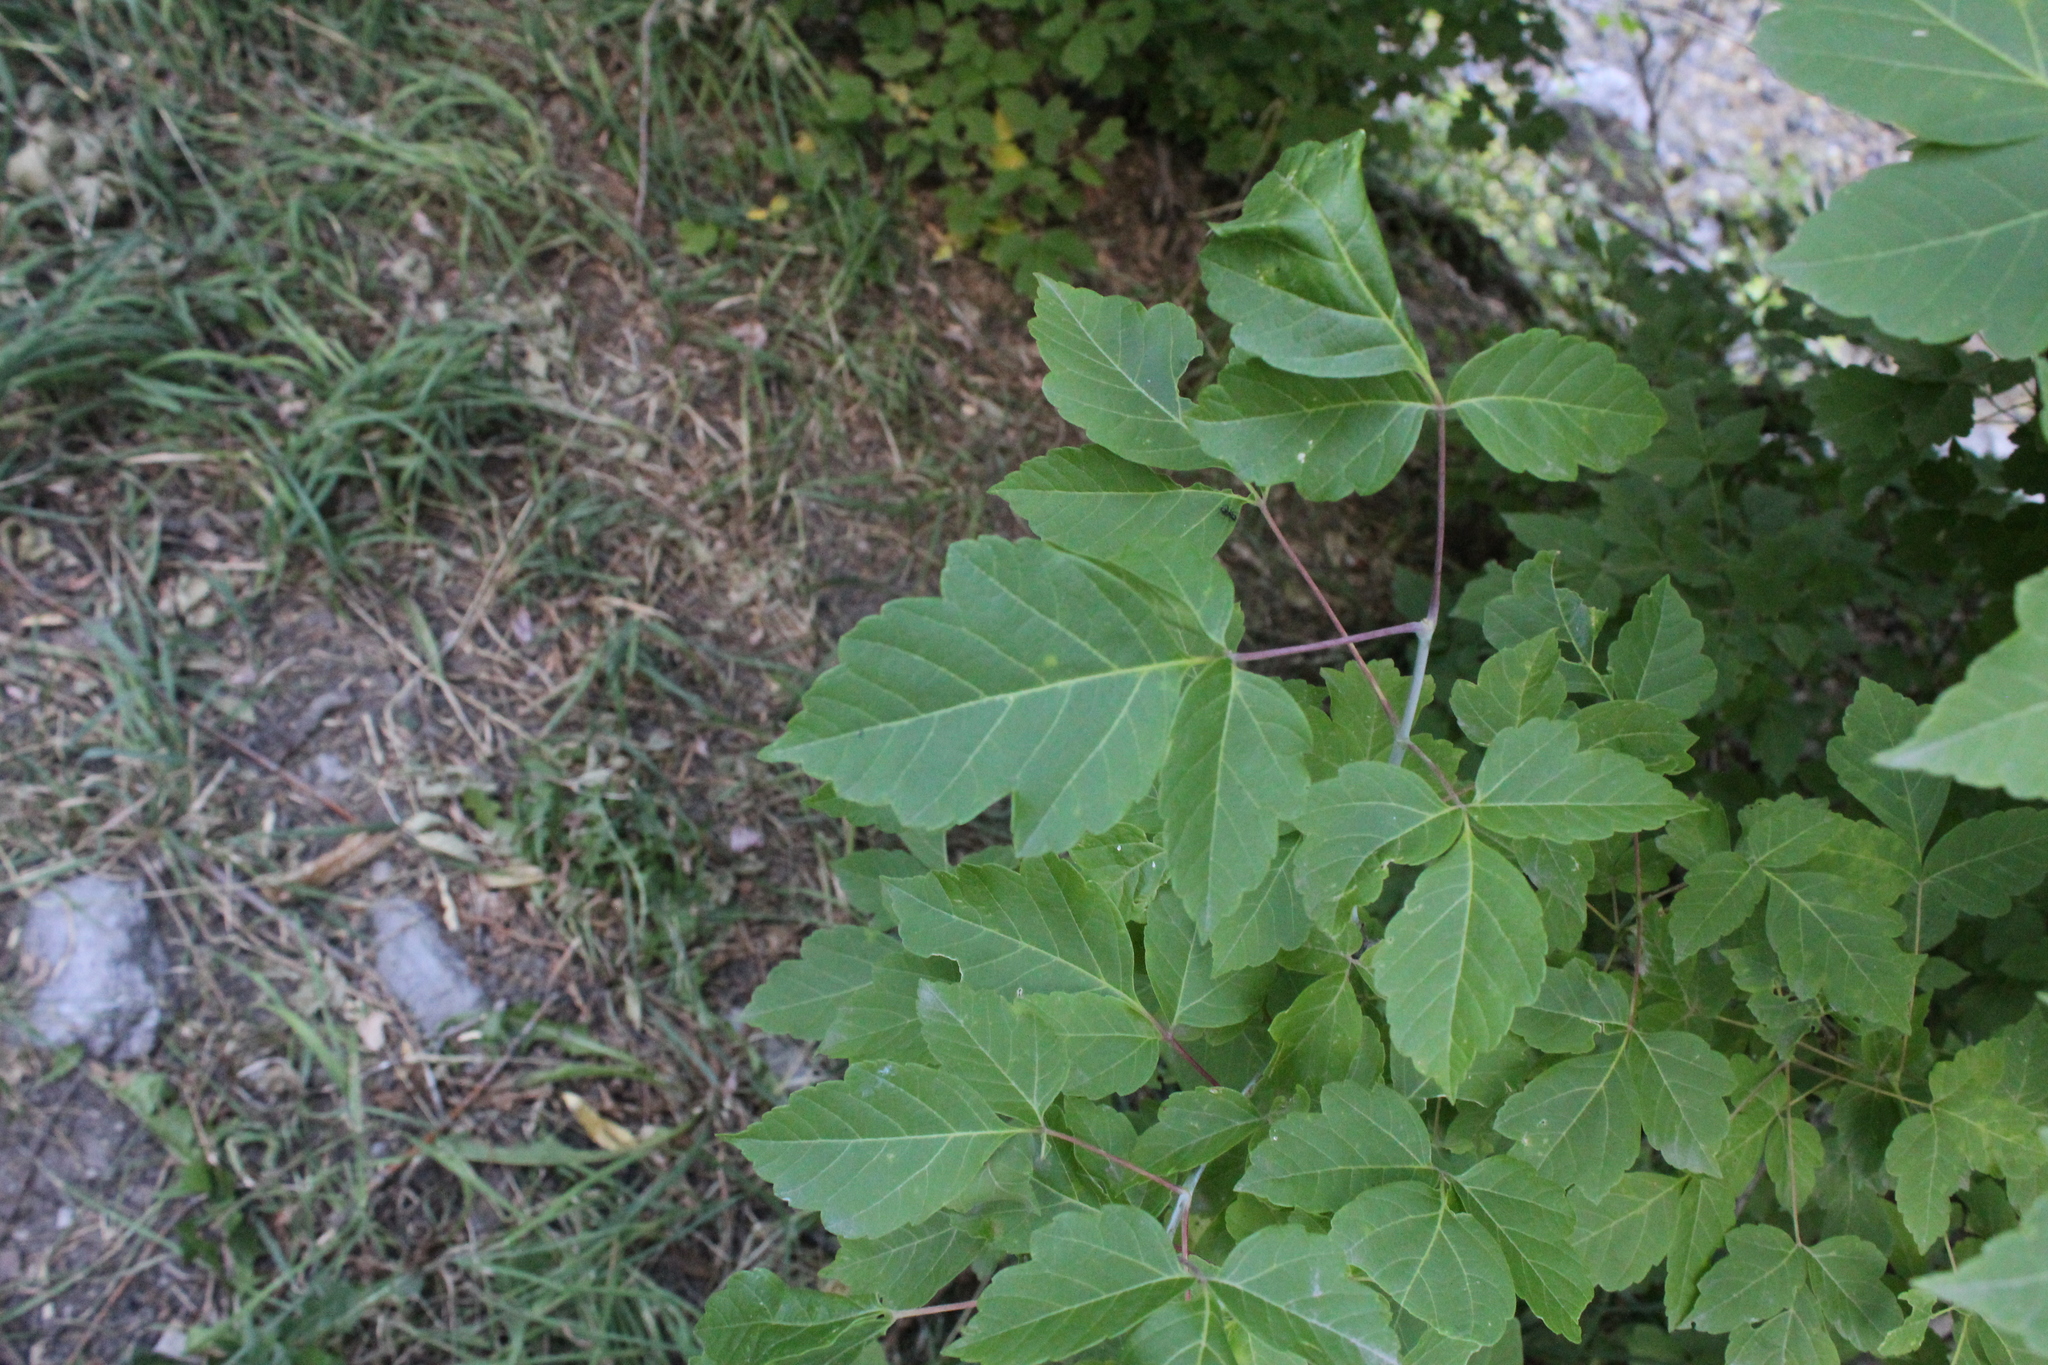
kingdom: Plantae
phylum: Tracheophyta
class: Magnoliopsida
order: Sapindales
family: Sapindaceae
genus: Acer
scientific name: Acer negundo
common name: Ashleaf maple
